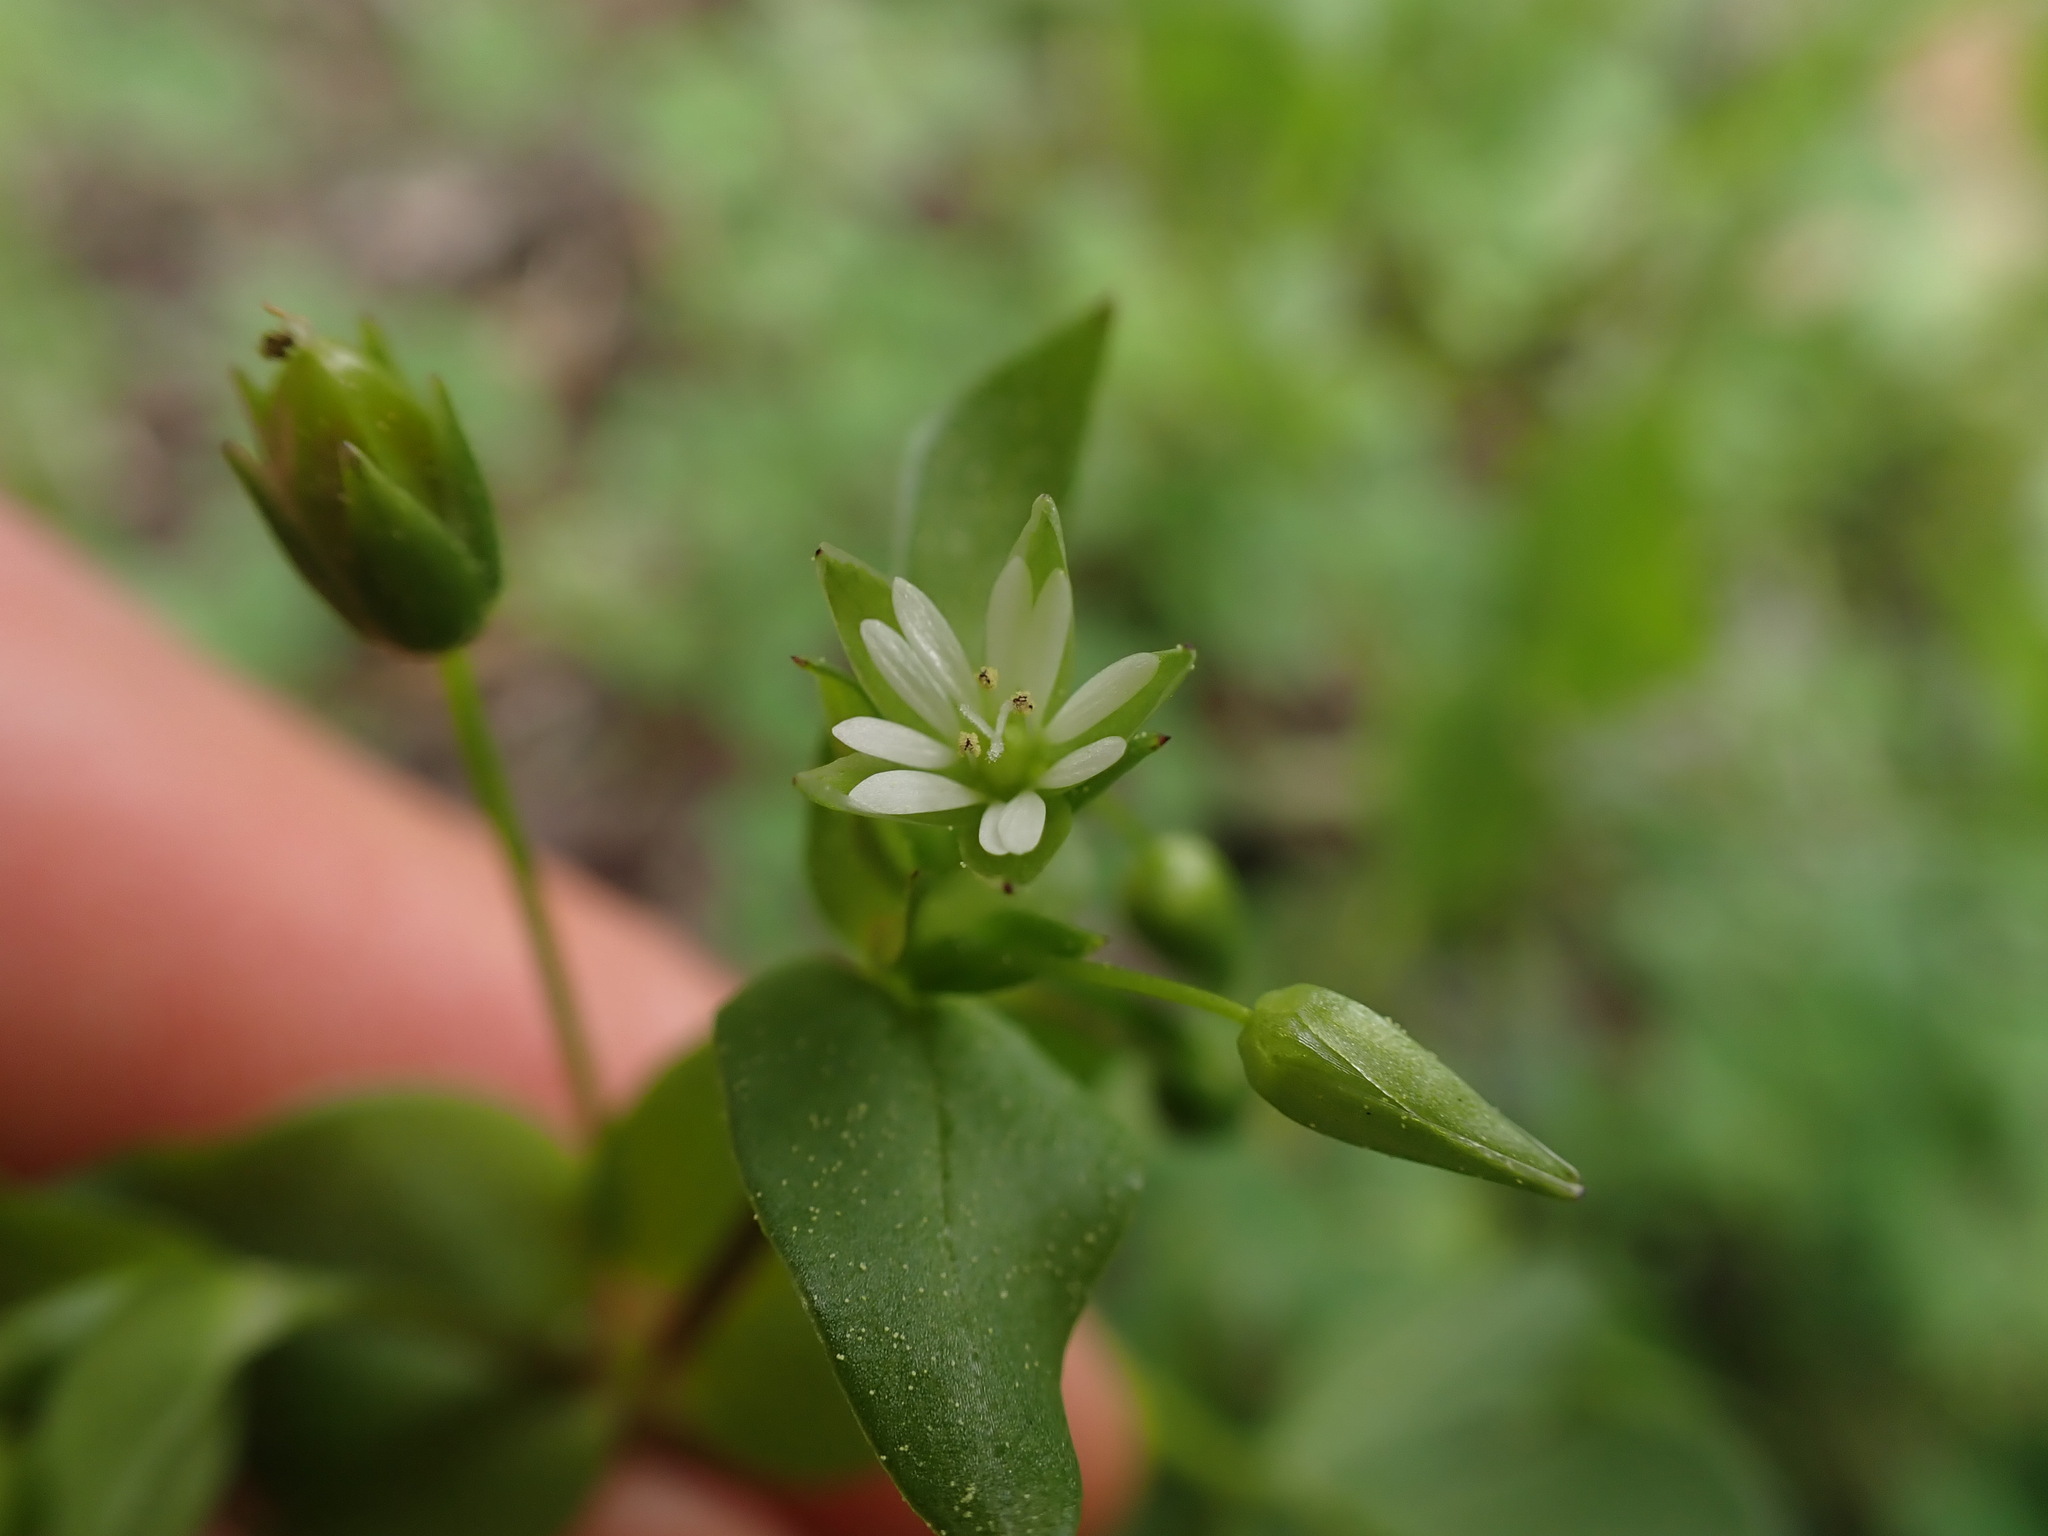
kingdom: Plantae
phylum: Tracheophyta
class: Magnoliopsida
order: Caryophyllales
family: Caryophyllaceae
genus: Stellaria
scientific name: Stellaria media
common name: Common chickweed
